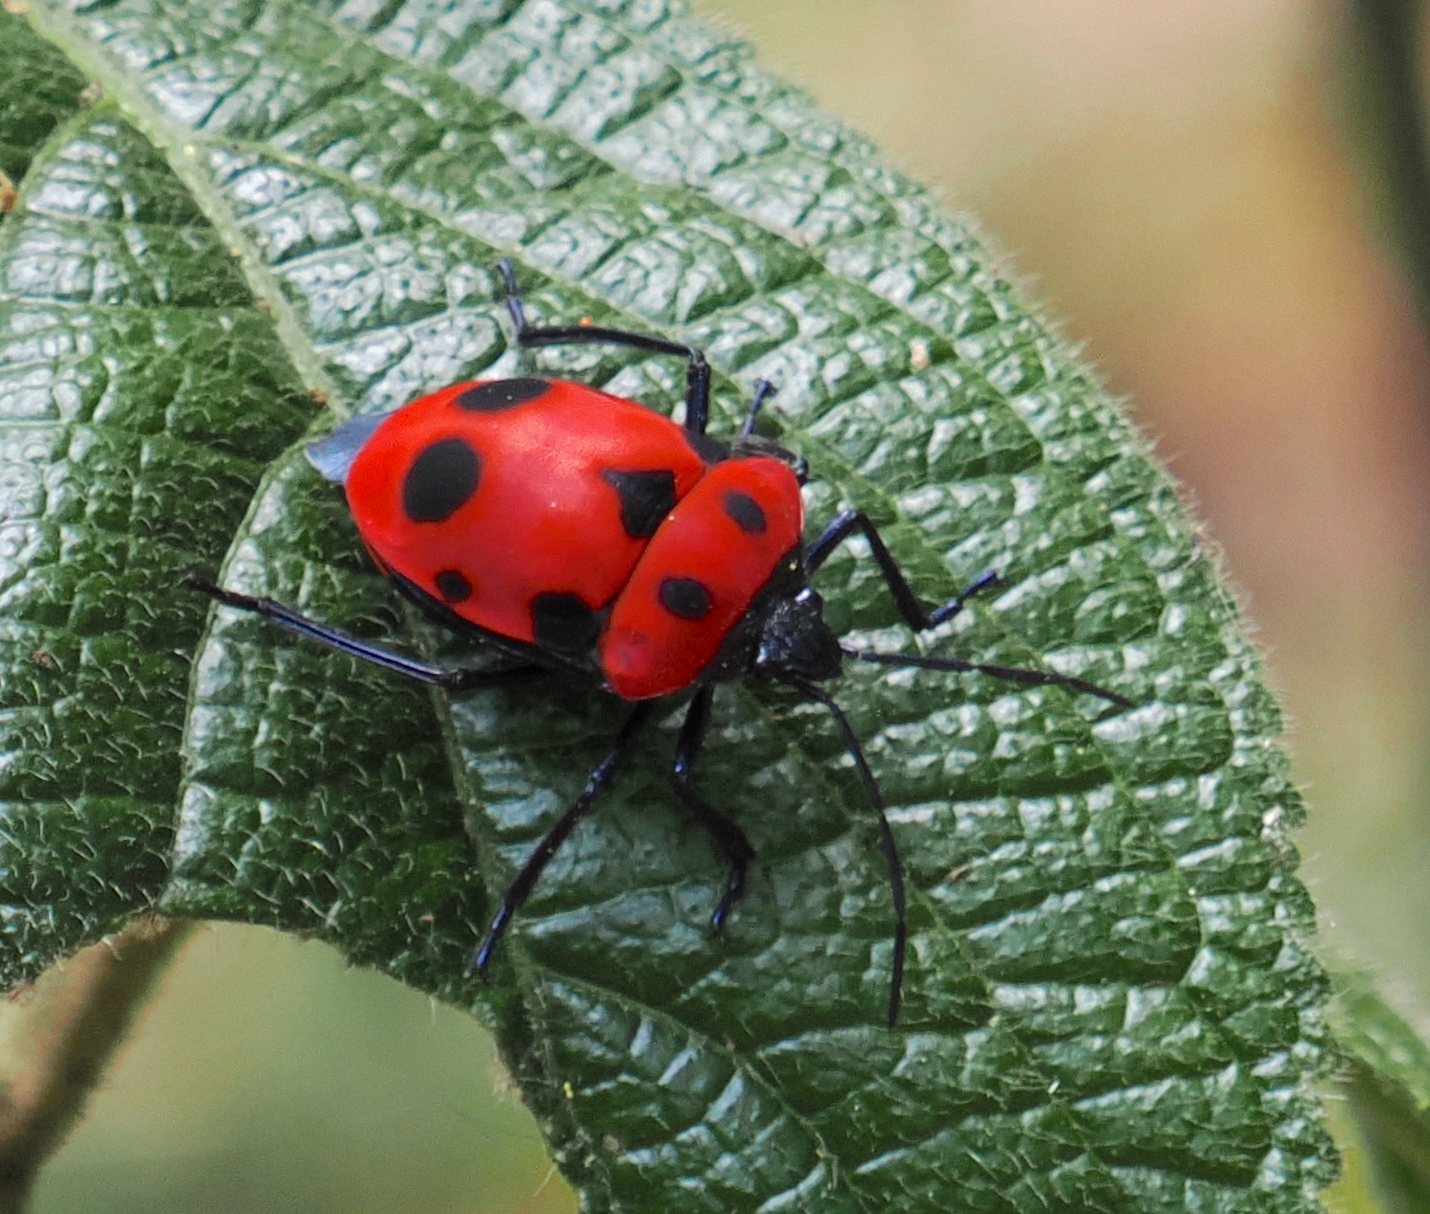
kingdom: Animalia
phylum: Arthropoda
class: Insecta
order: Hemiptera
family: Scutelleridae
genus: Poecilocoris
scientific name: Poecilocoris nepalensis
